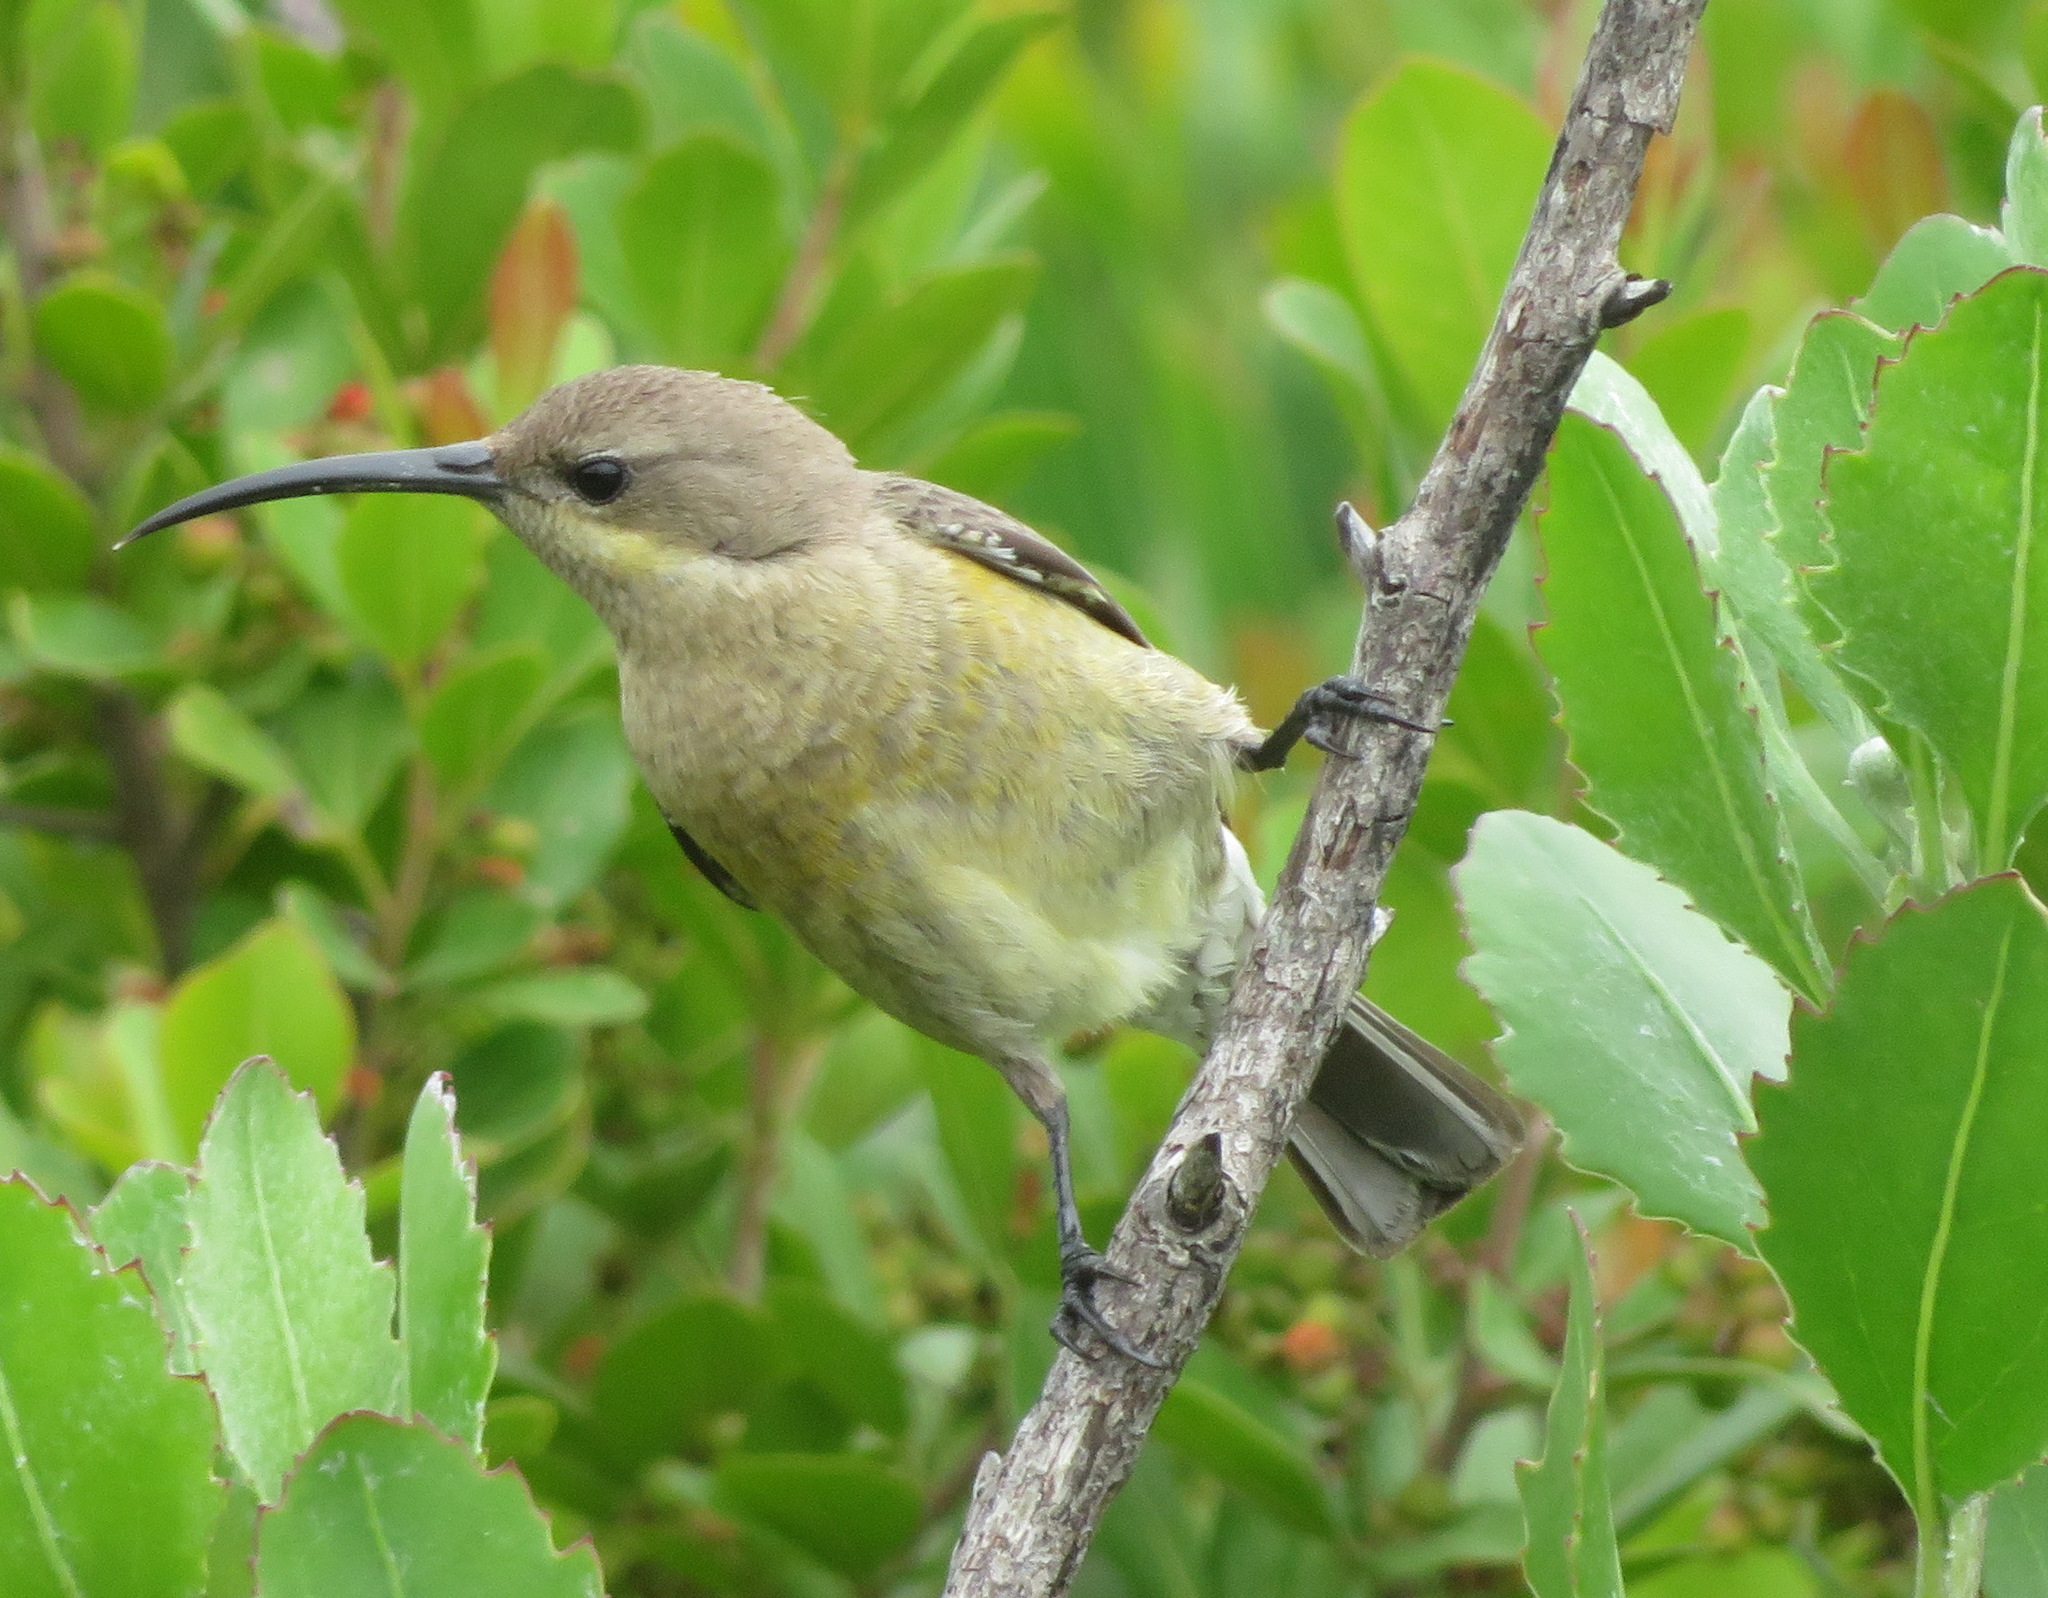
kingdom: Animalia
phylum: Chordata
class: Aves
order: Passeriformes
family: Nectariniidae
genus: Cinnyris
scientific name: Cinnyris afer
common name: Greater double-collared sunbird
